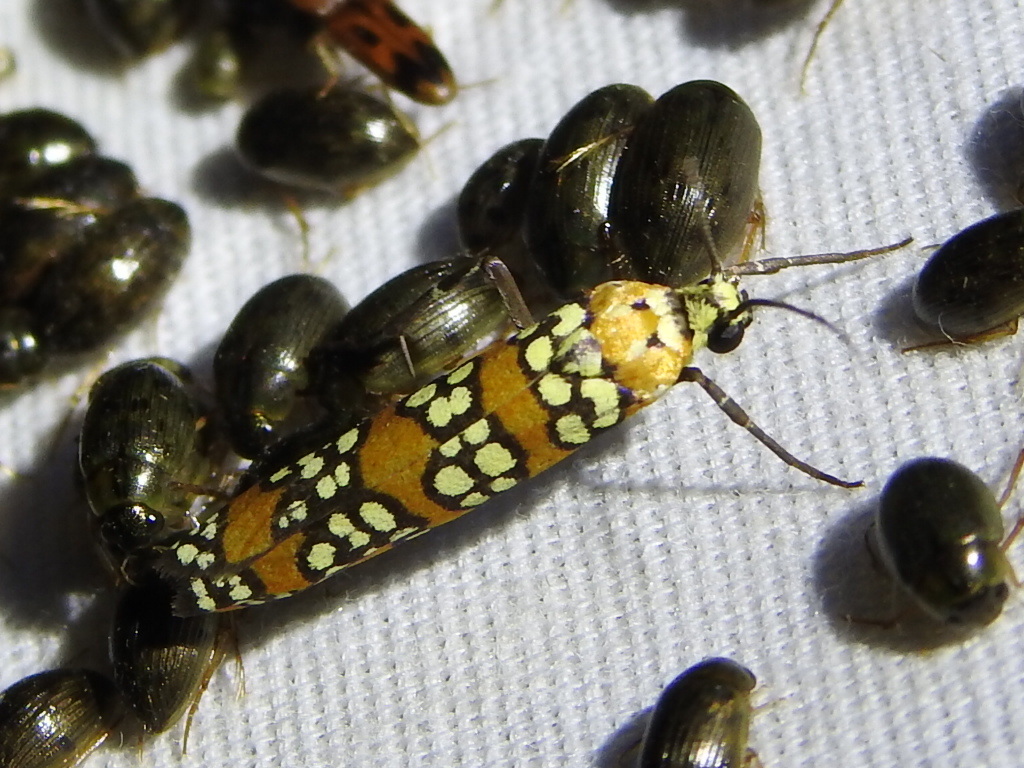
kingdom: Animalia
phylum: Arthropoda
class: Insecta
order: Lepidoptera
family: Attevidae
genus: Atteva
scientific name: Atteva punctella
